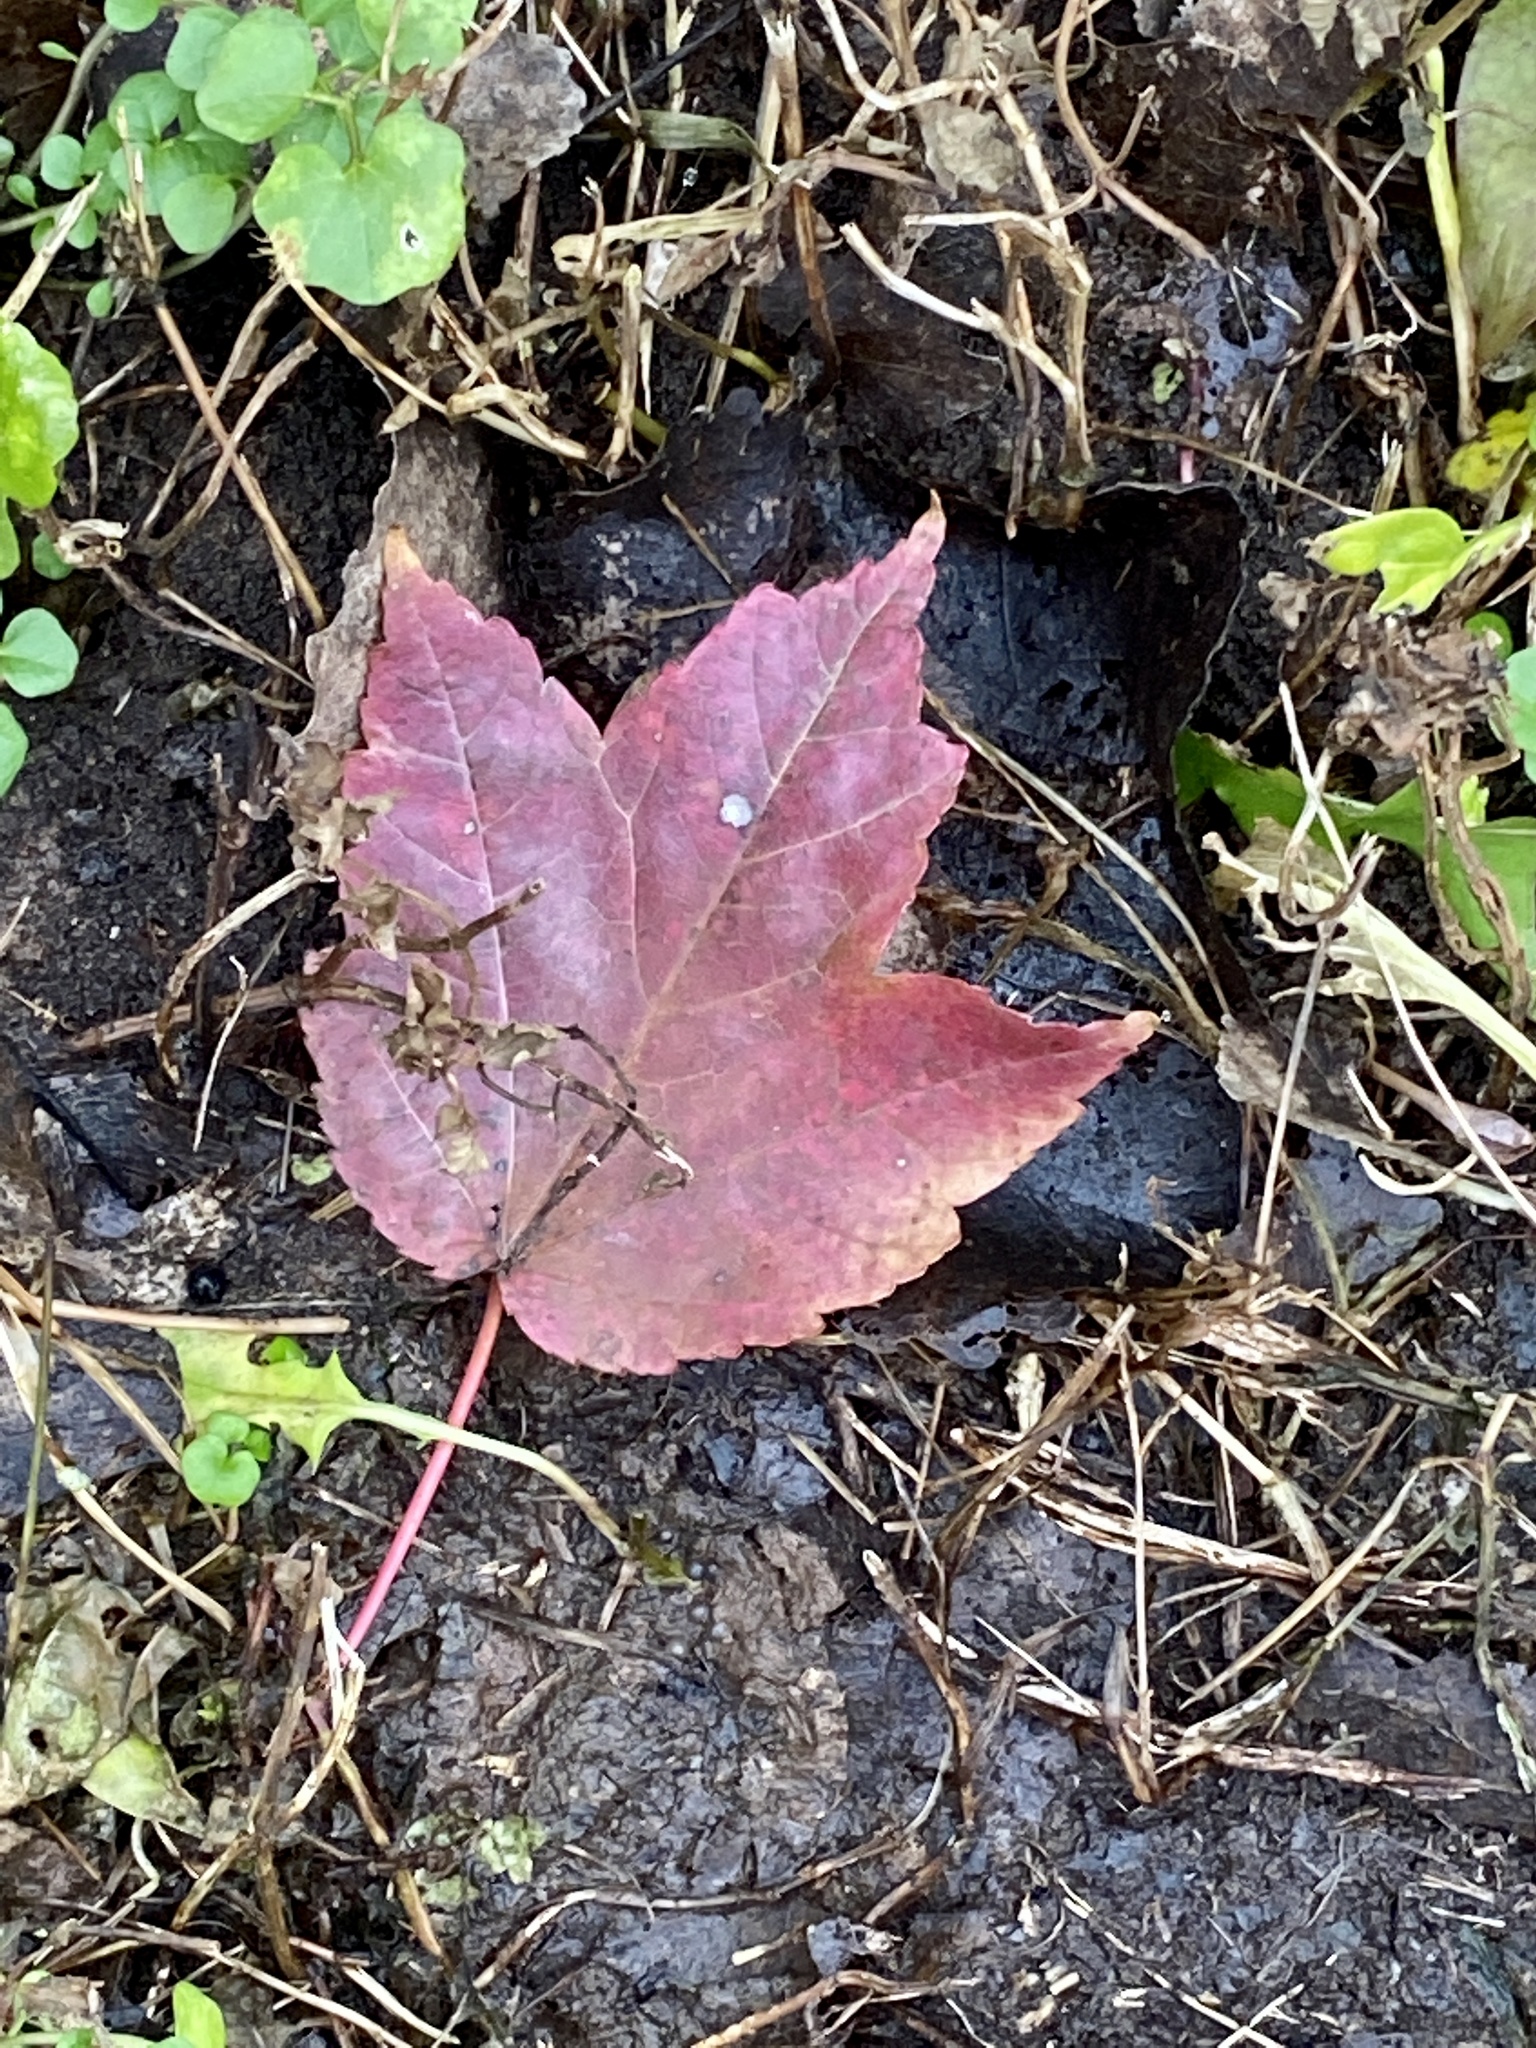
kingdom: Plantae
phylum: Tracheophyta
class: Magnoliopsida
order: Sapindales
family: Sapindaceae
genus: Acer
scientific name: Acer rubrum
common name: Red maple
